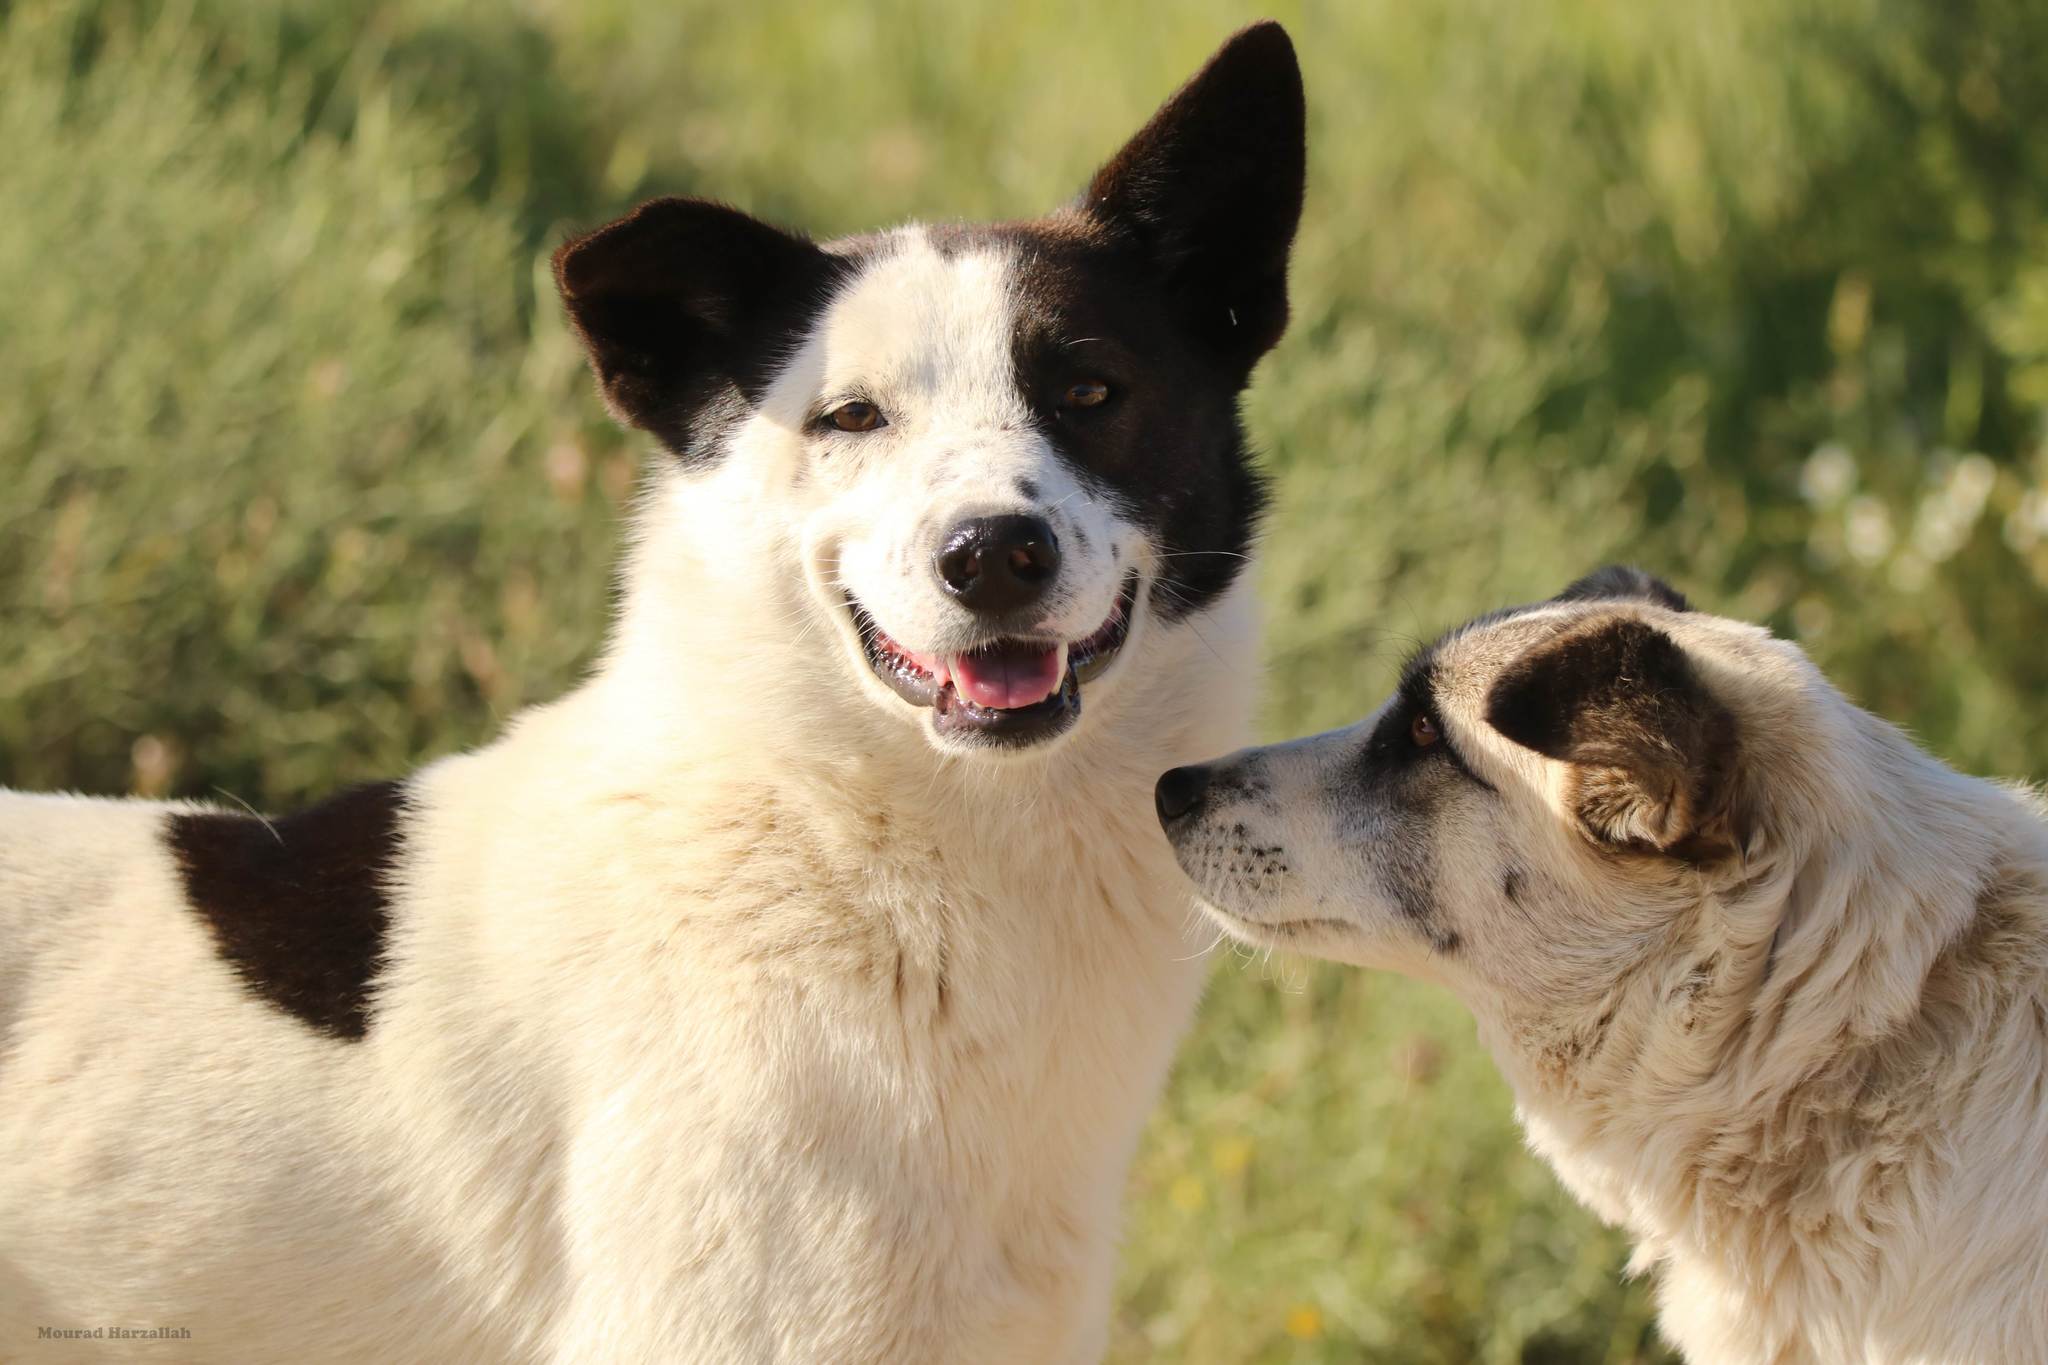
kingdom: Animalia
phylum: Chordata
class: Mammalia
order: Carnivora
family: Canidae
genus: Canis
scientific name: Canis lupus
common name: Gray wolf
